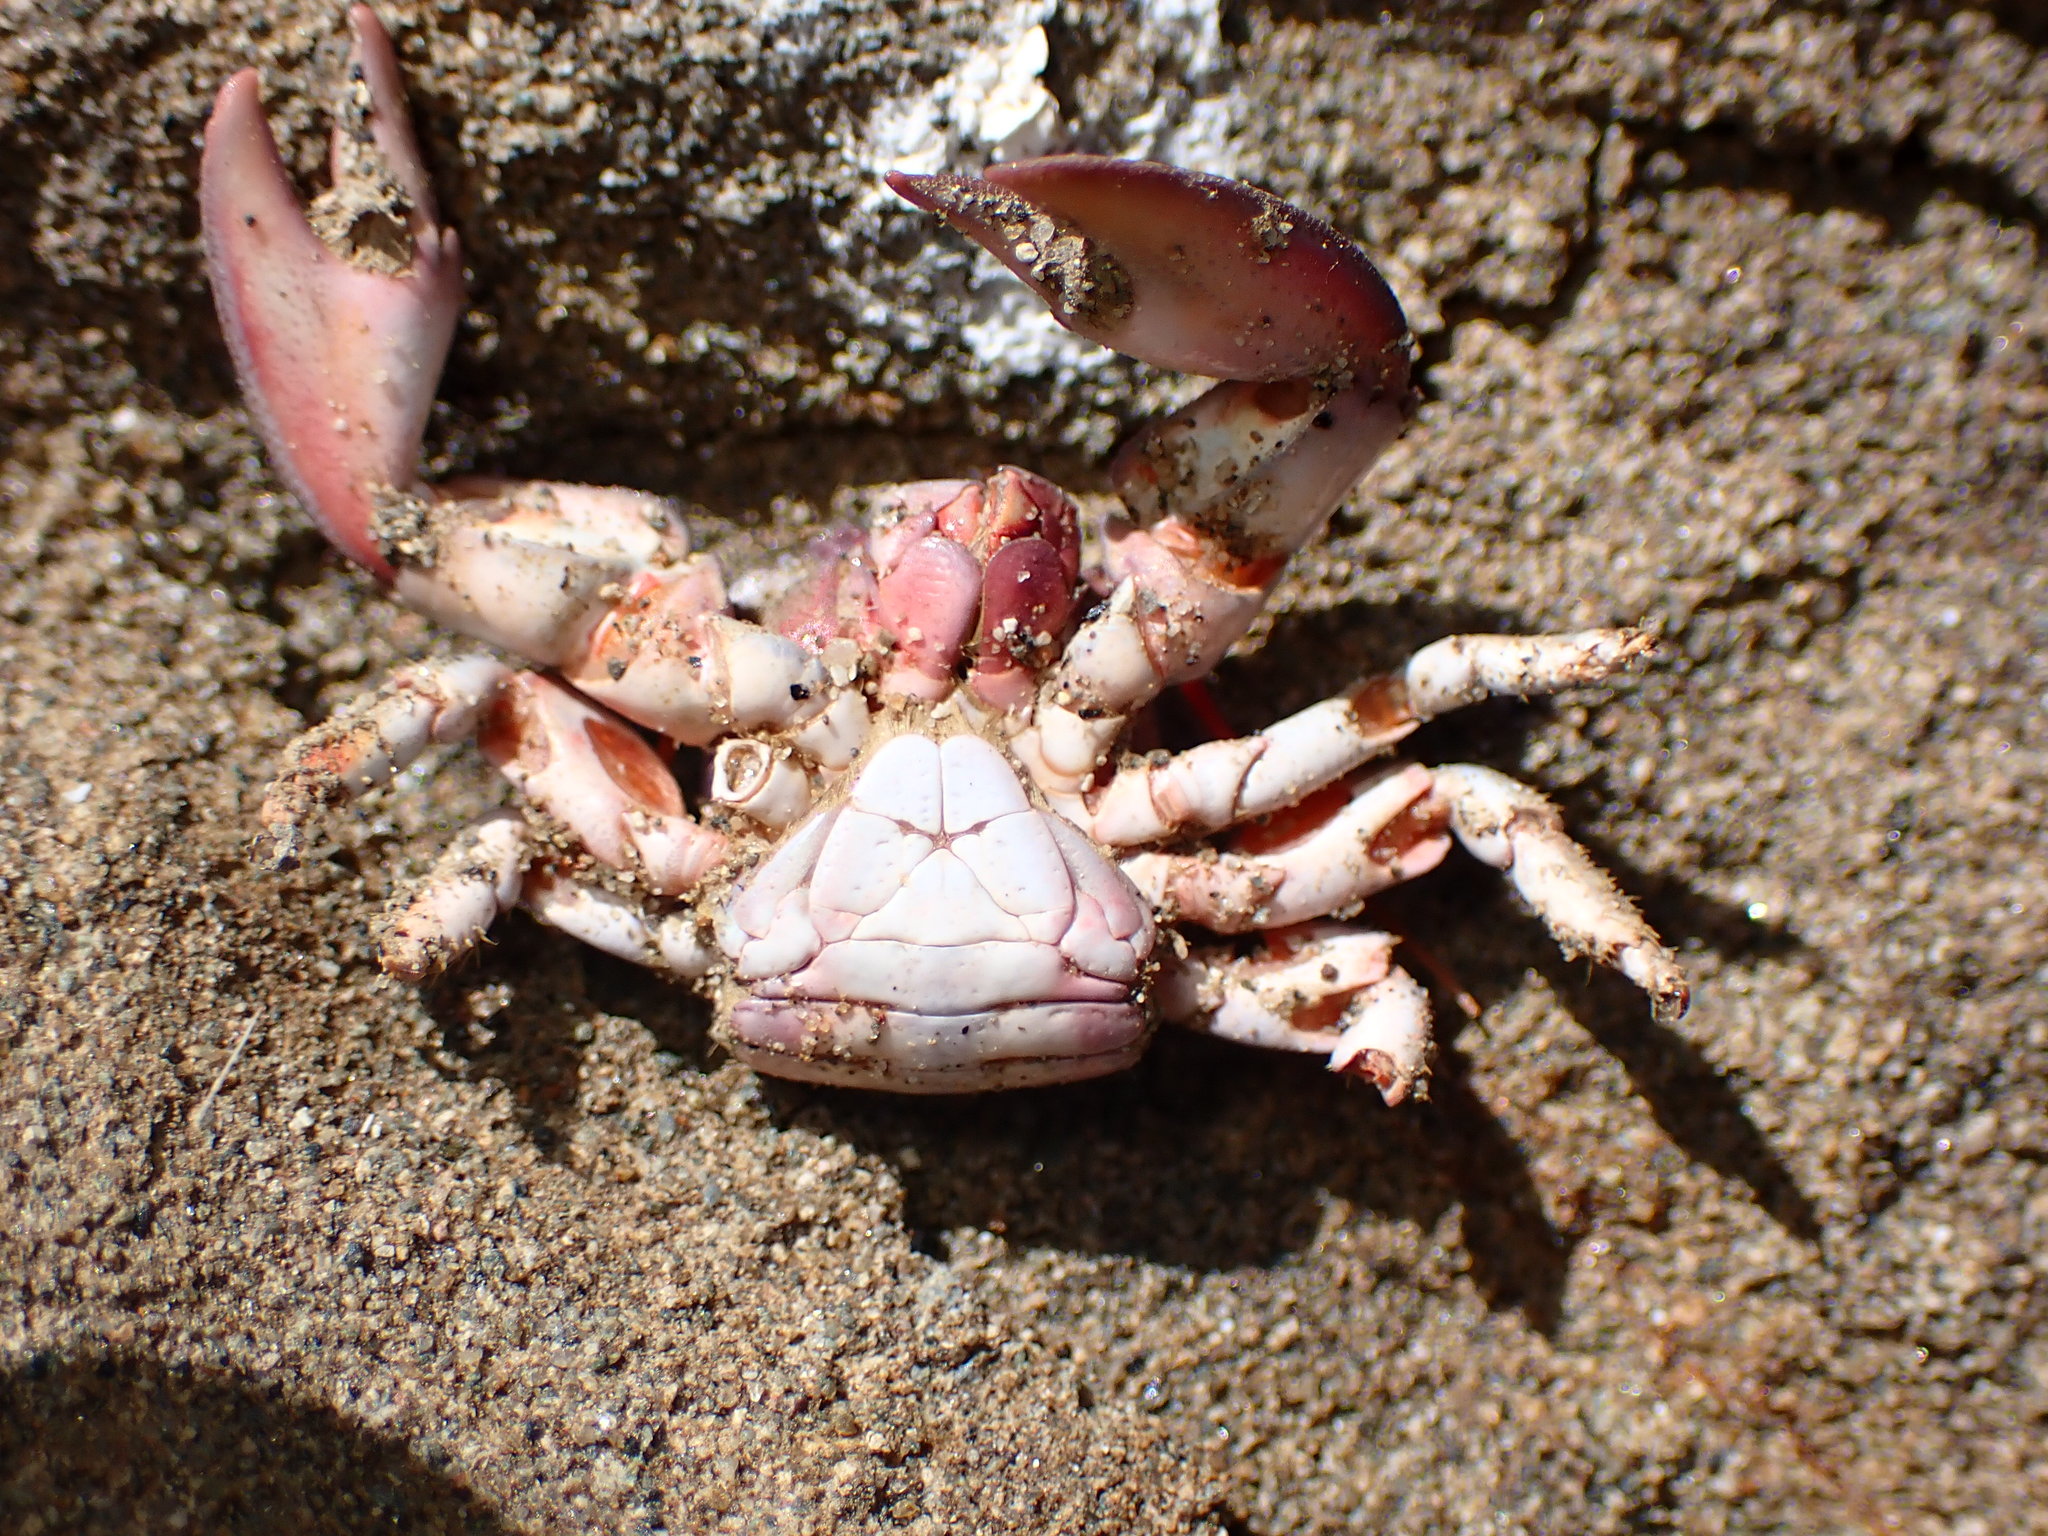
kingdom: Animalia
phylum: Arthropoda
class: Malacostraca
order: Decapoda
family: Porcellanidae
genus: Petrolisthes
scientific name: Petrolisthes cinctipes
